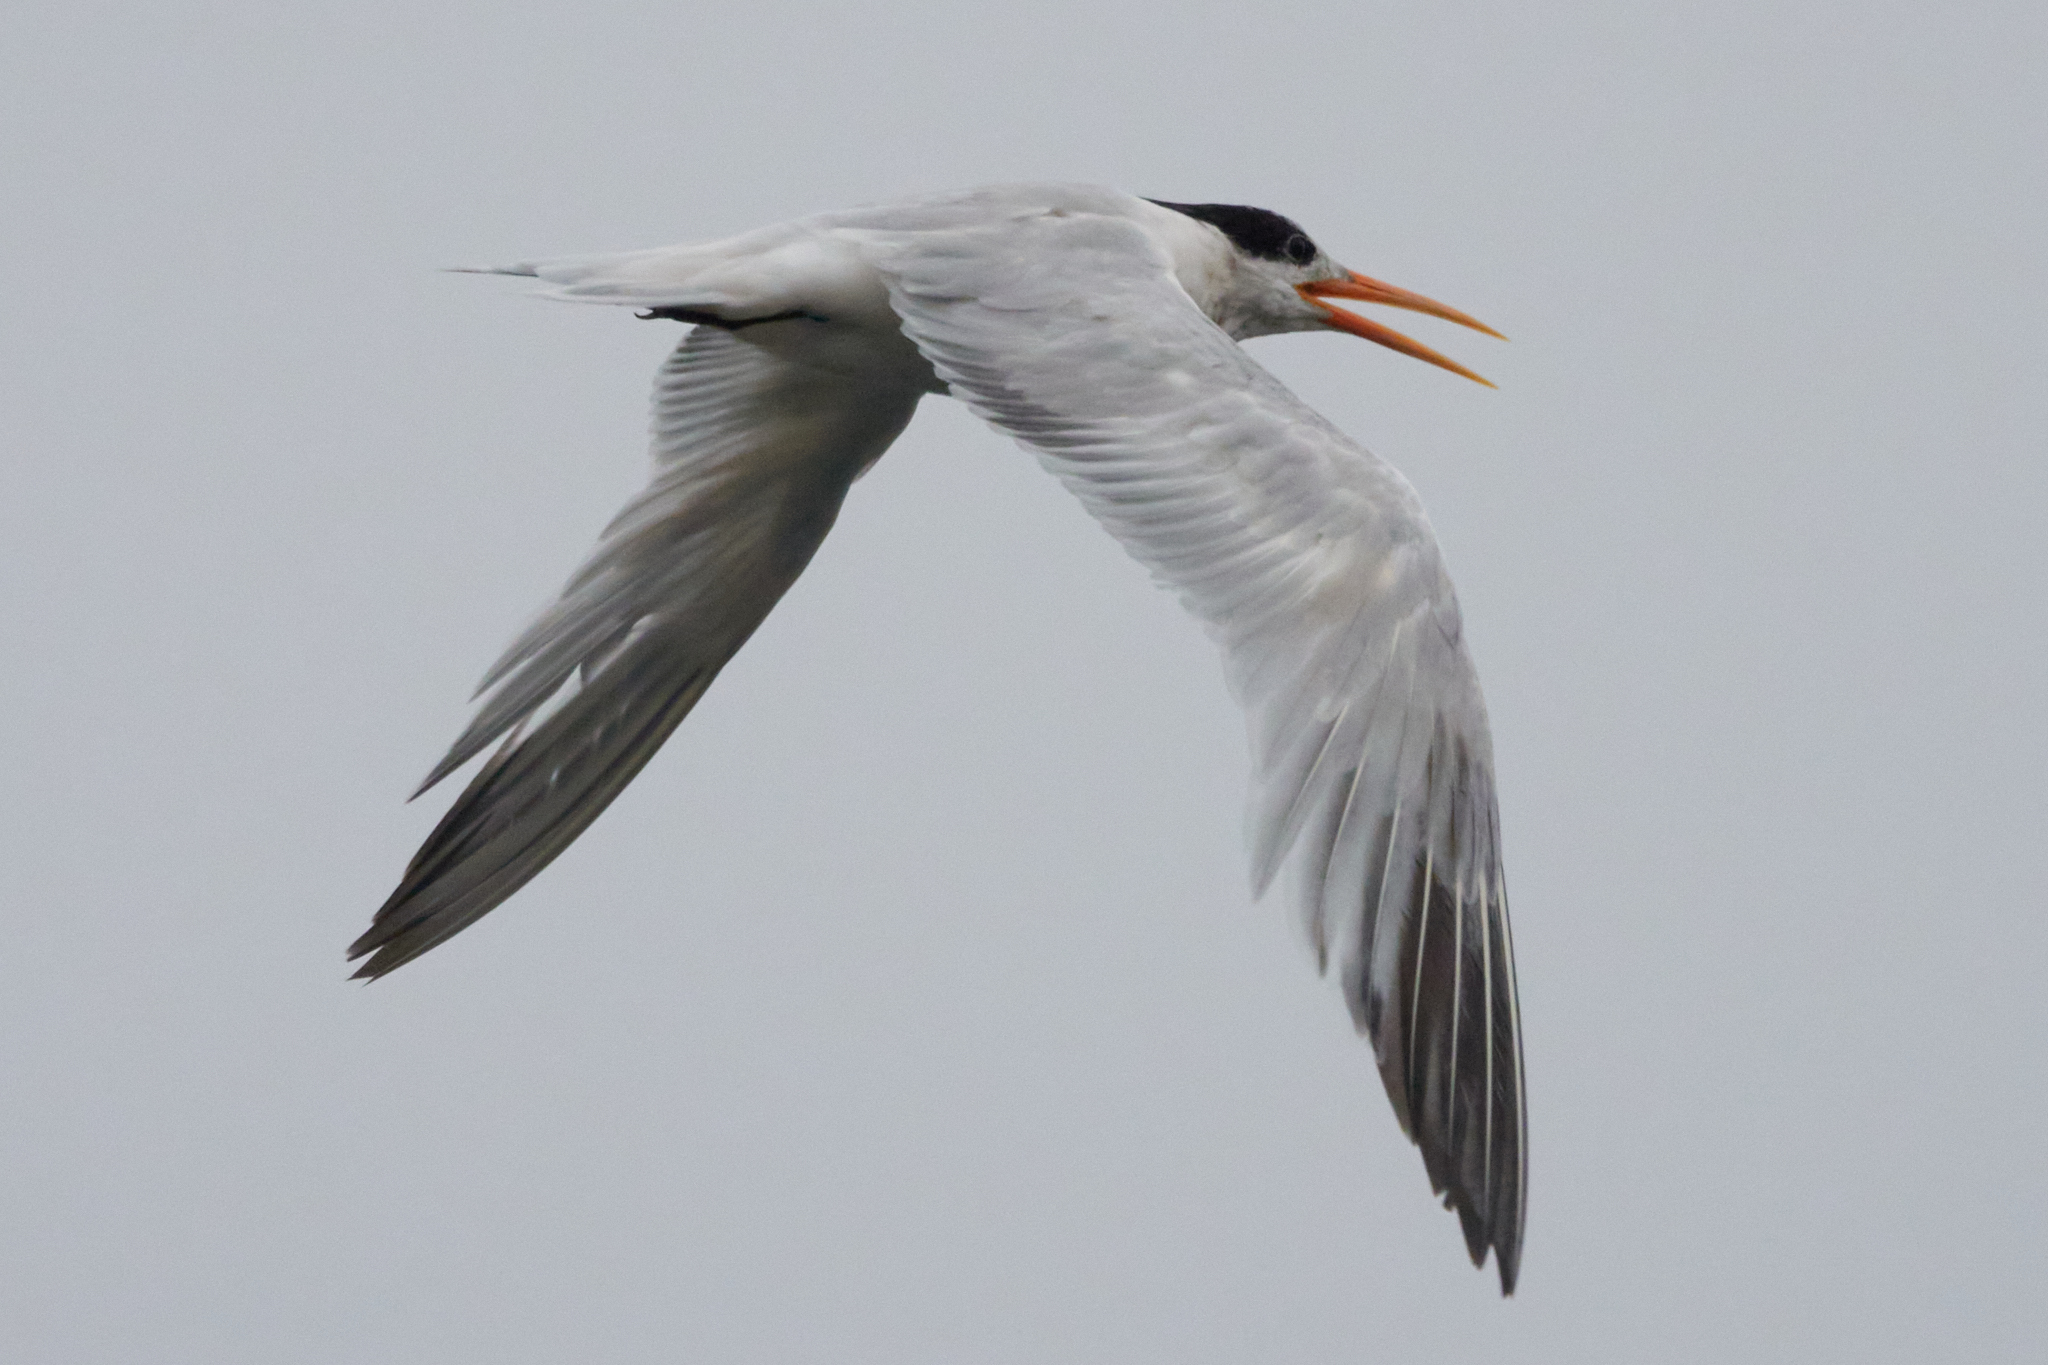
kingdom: Animalia
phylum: Chordata
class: Aves
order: Charadriiformes
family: Laridae
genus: Thalasseus
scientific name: Thalasseus elegans
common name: Elegant tern
